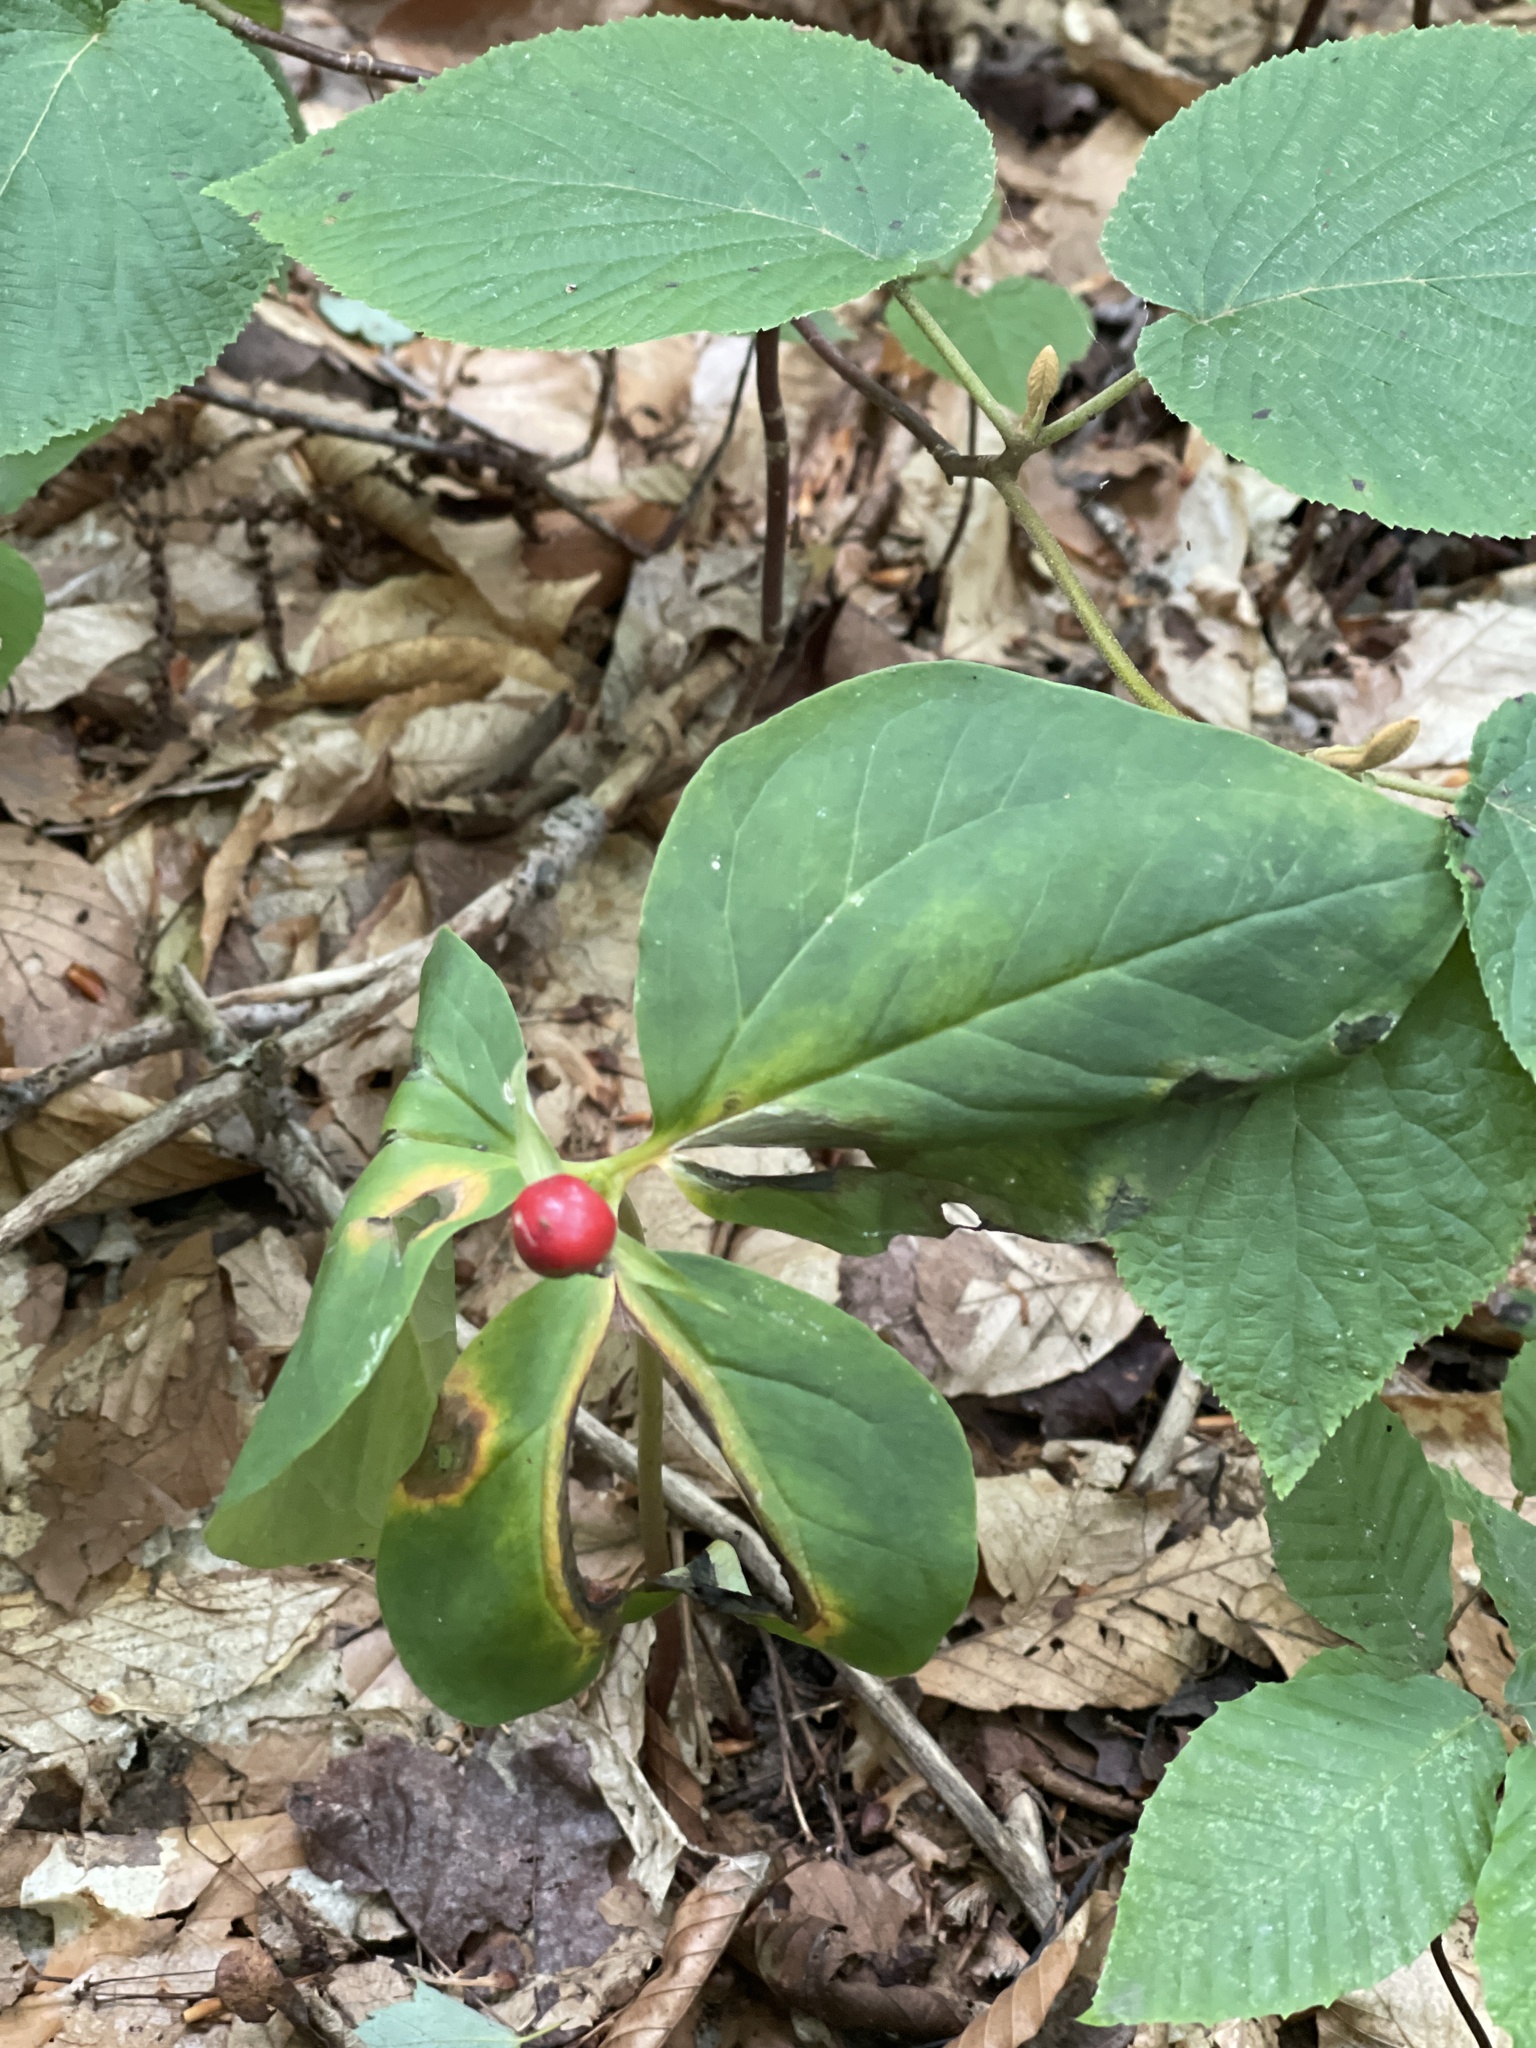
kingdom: Plantae
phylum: Tracheophyta
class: Liliopsida
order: Liliales
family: Melanthiaceae
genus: Trillium
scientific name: Trillium undulatum
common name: Paint trillium
